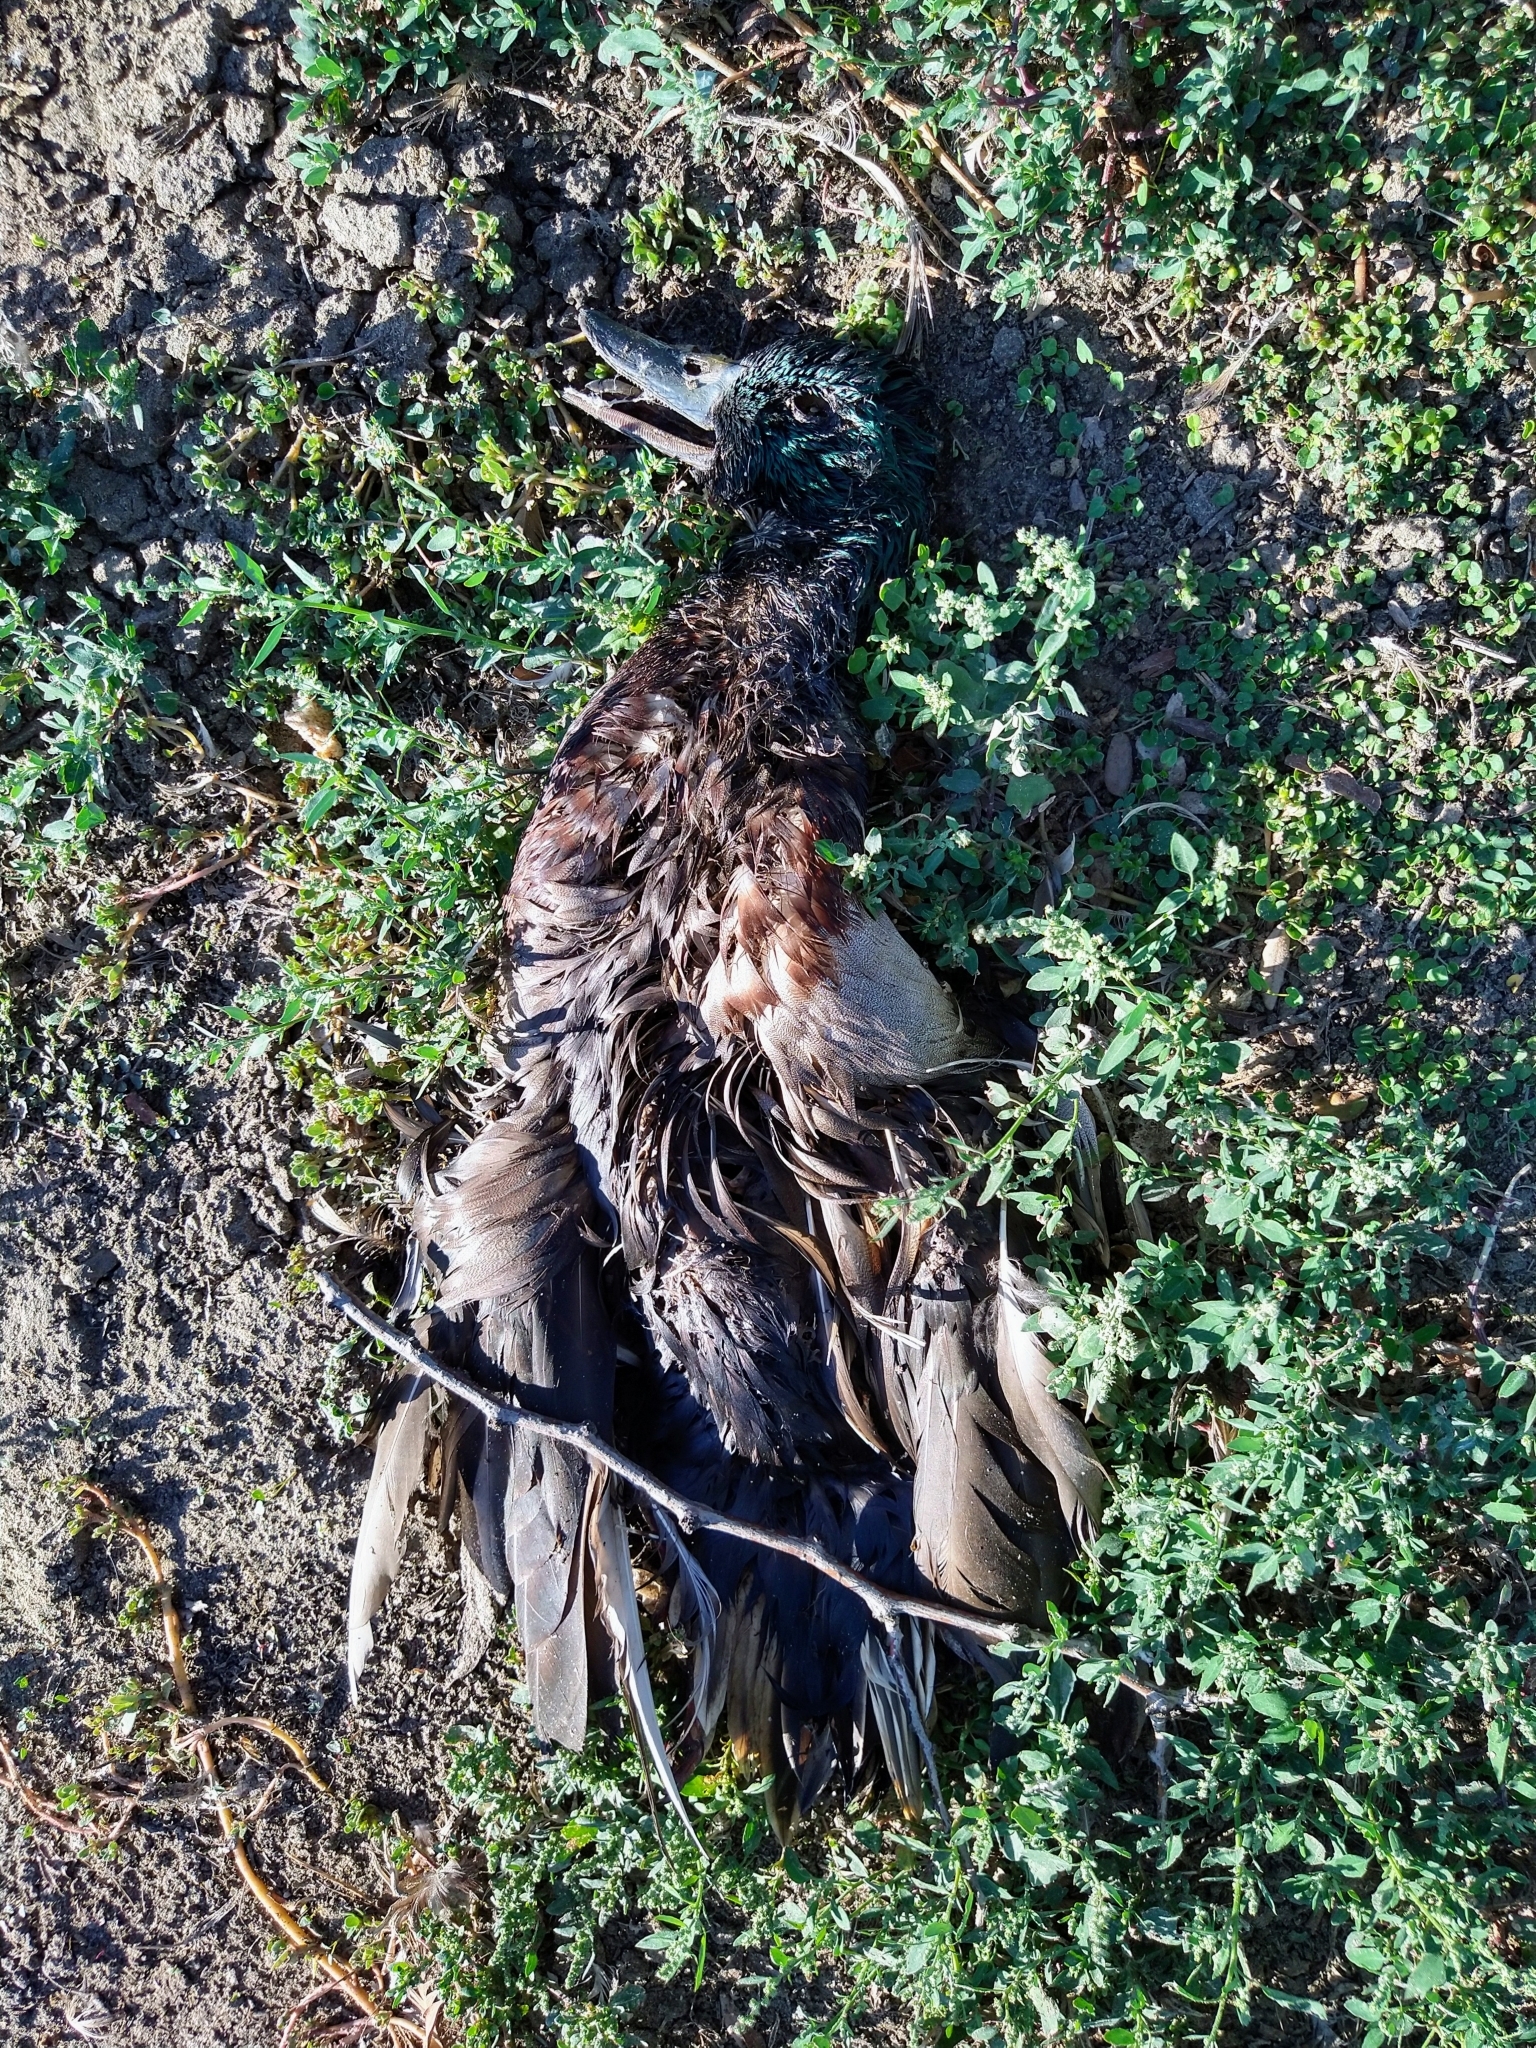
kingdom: Animalia
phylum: Chordata
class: Aves
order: Anseriformes
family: Anatidae
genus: Anas
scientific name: Anas platyrhynchos
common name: Mallard
